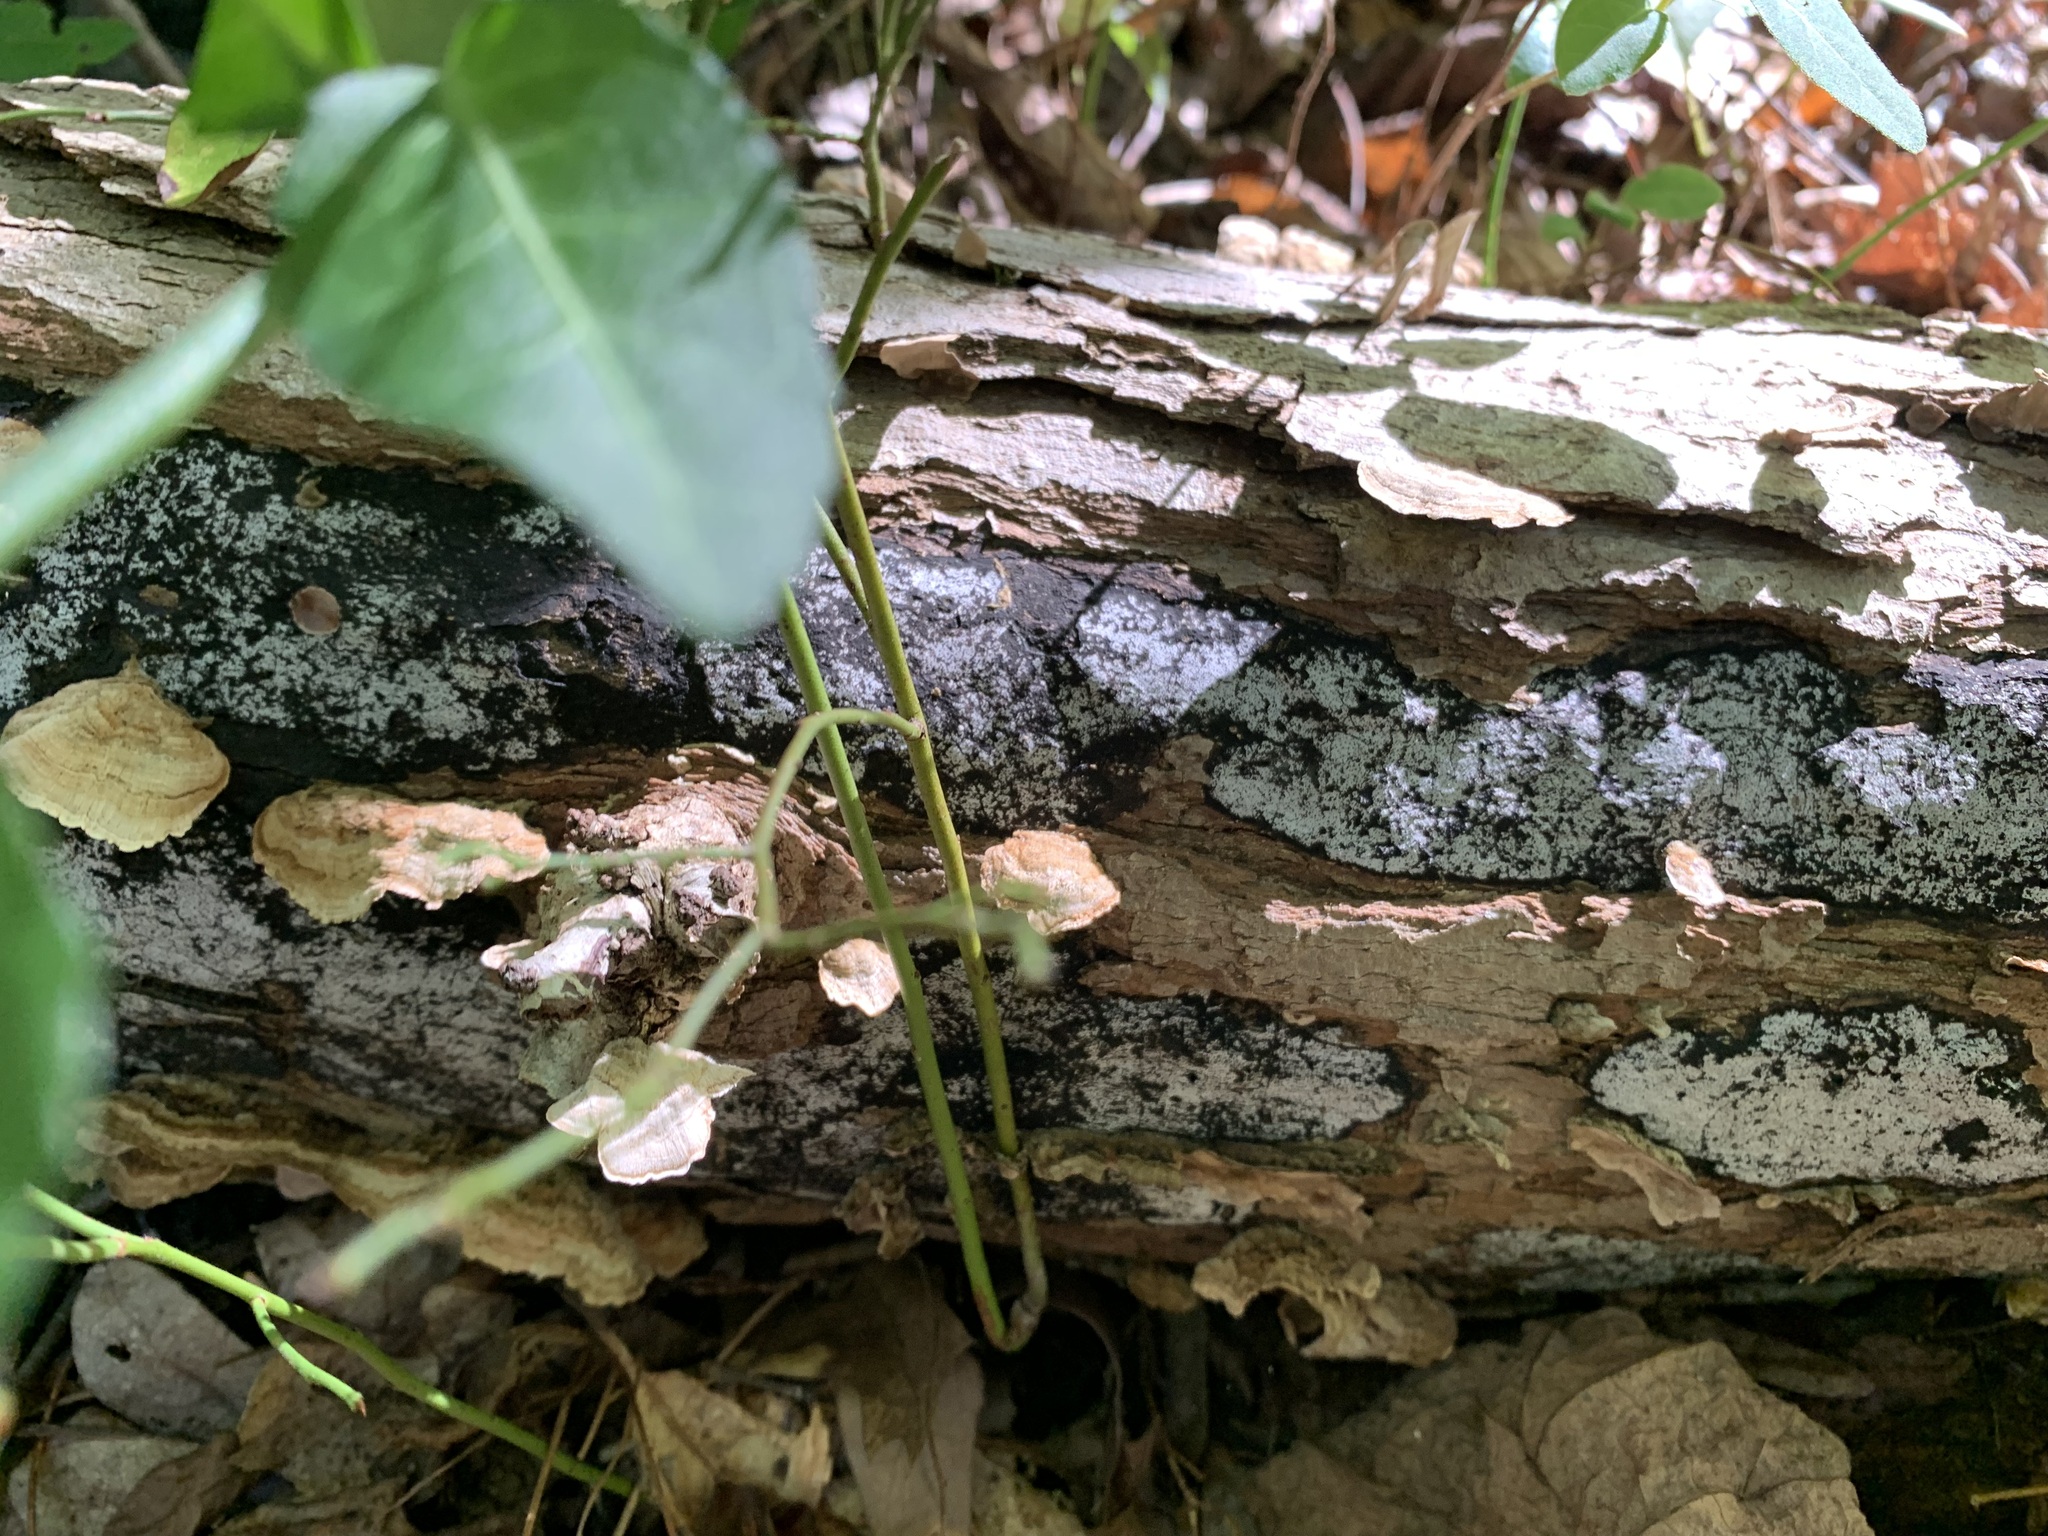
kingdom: Fungi
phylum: Ascomycota
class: Sordariomycetes
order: Xylariales
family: Graphostromataceae
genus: Biscogniauxia
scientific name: Biscogniauxia atropunctata
